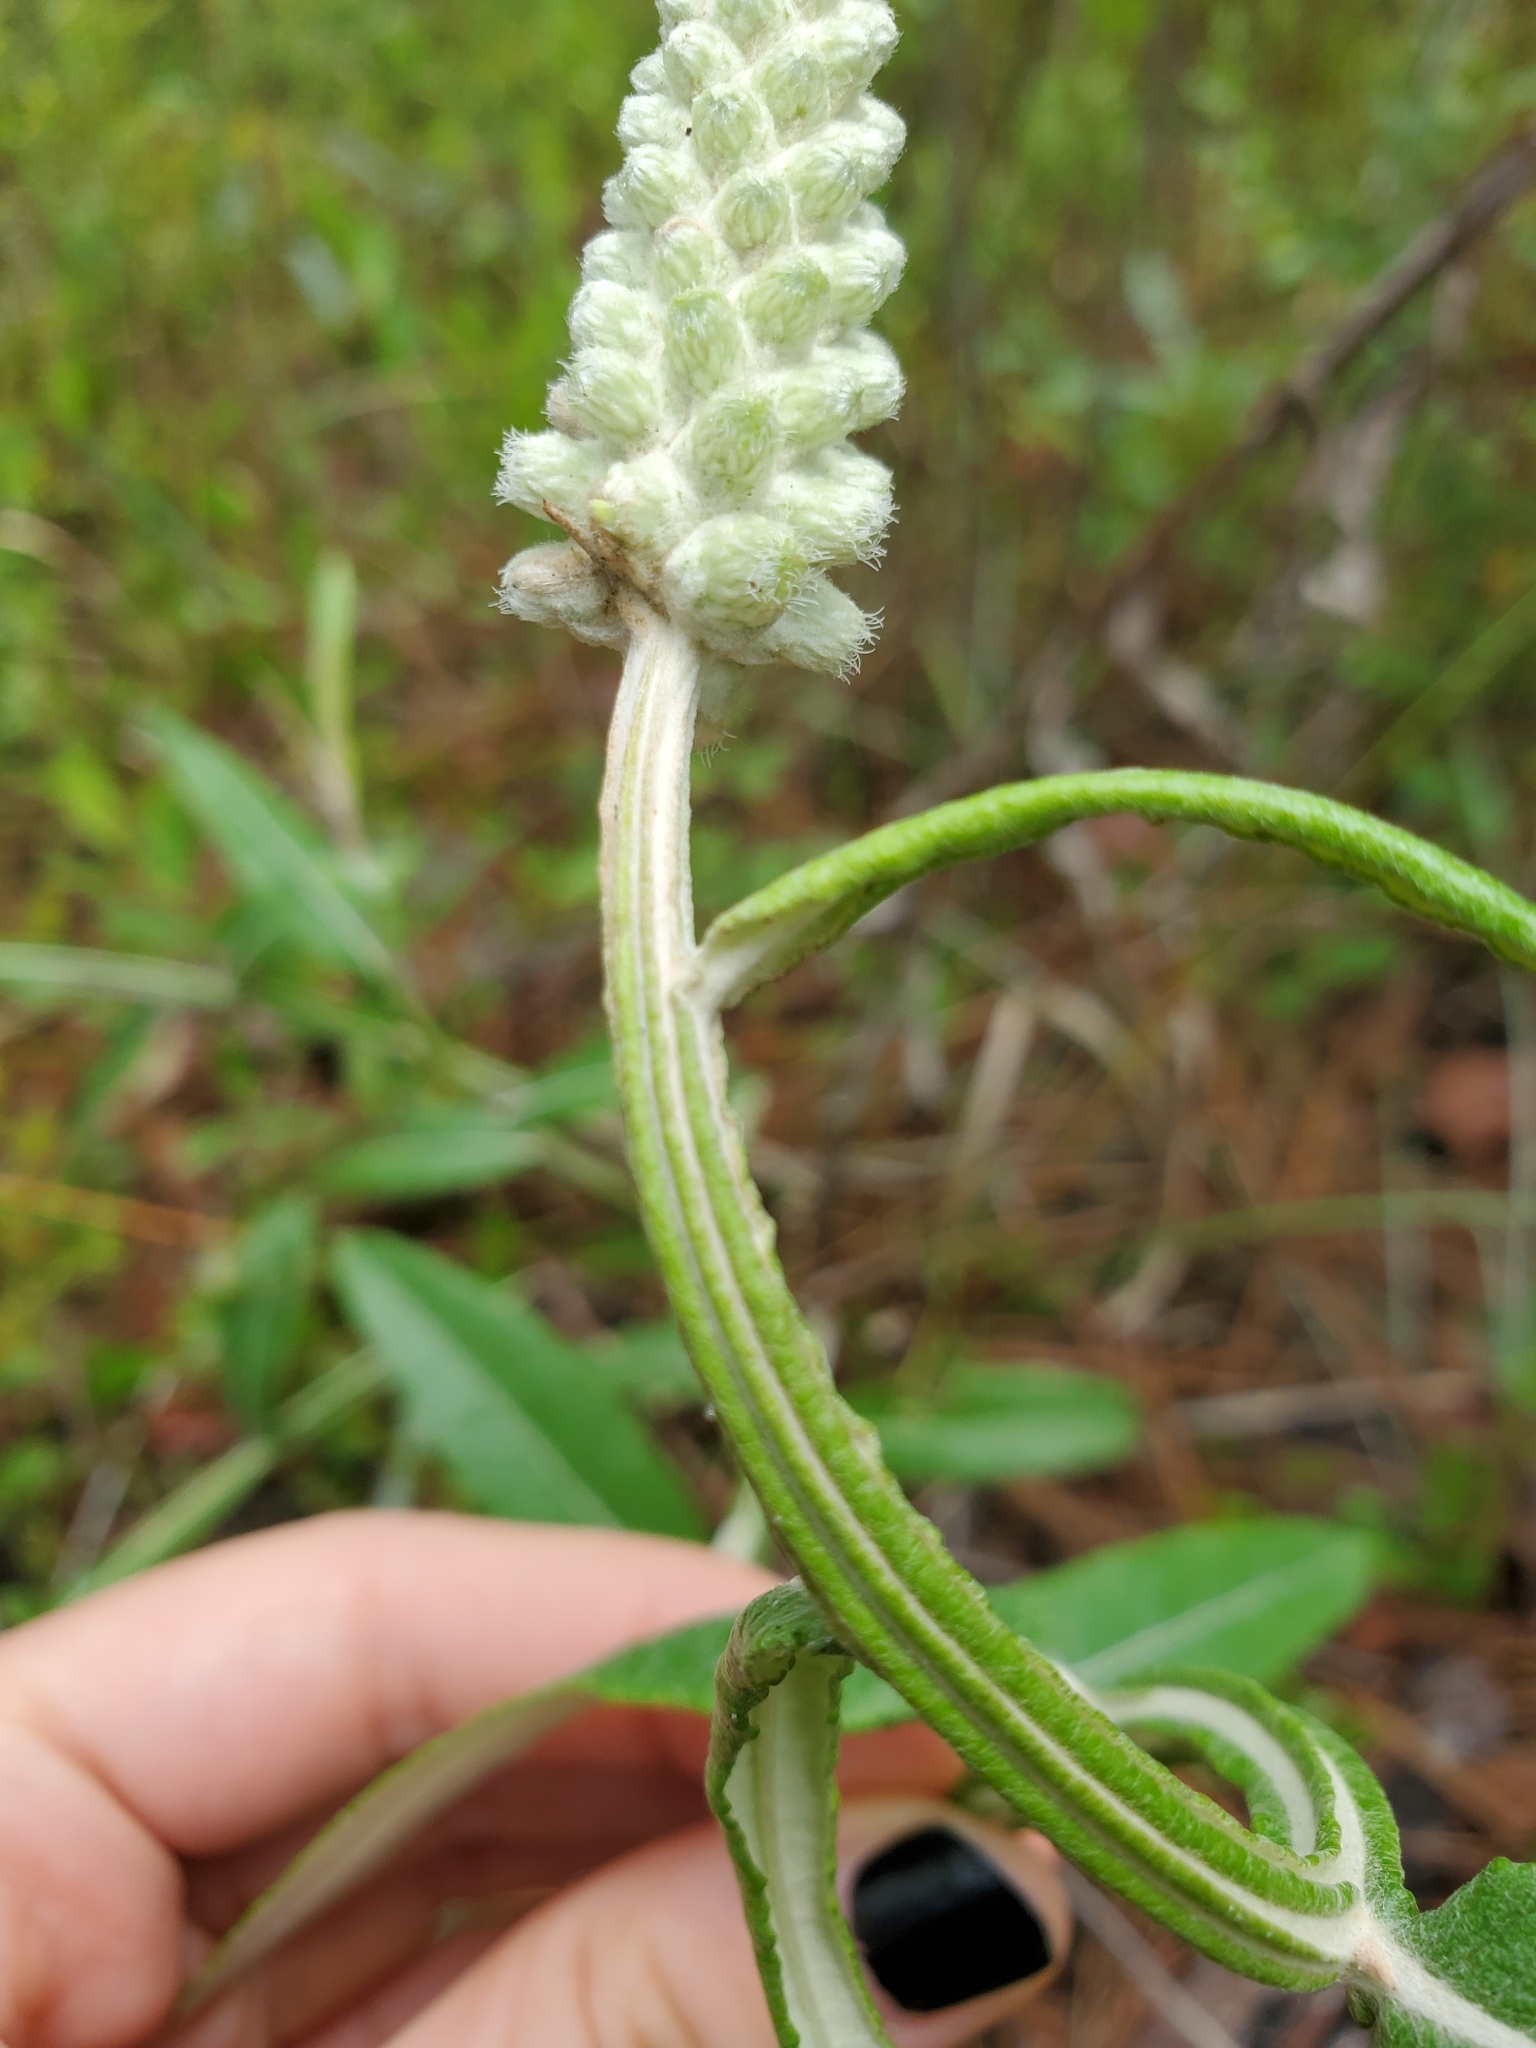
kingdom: Plantae
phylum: Tracheophyta
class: Magnoliopsida
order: Asterales
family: Asteraceae
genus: Pterocaulon
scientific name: Pterocaulon pycnostachyum
